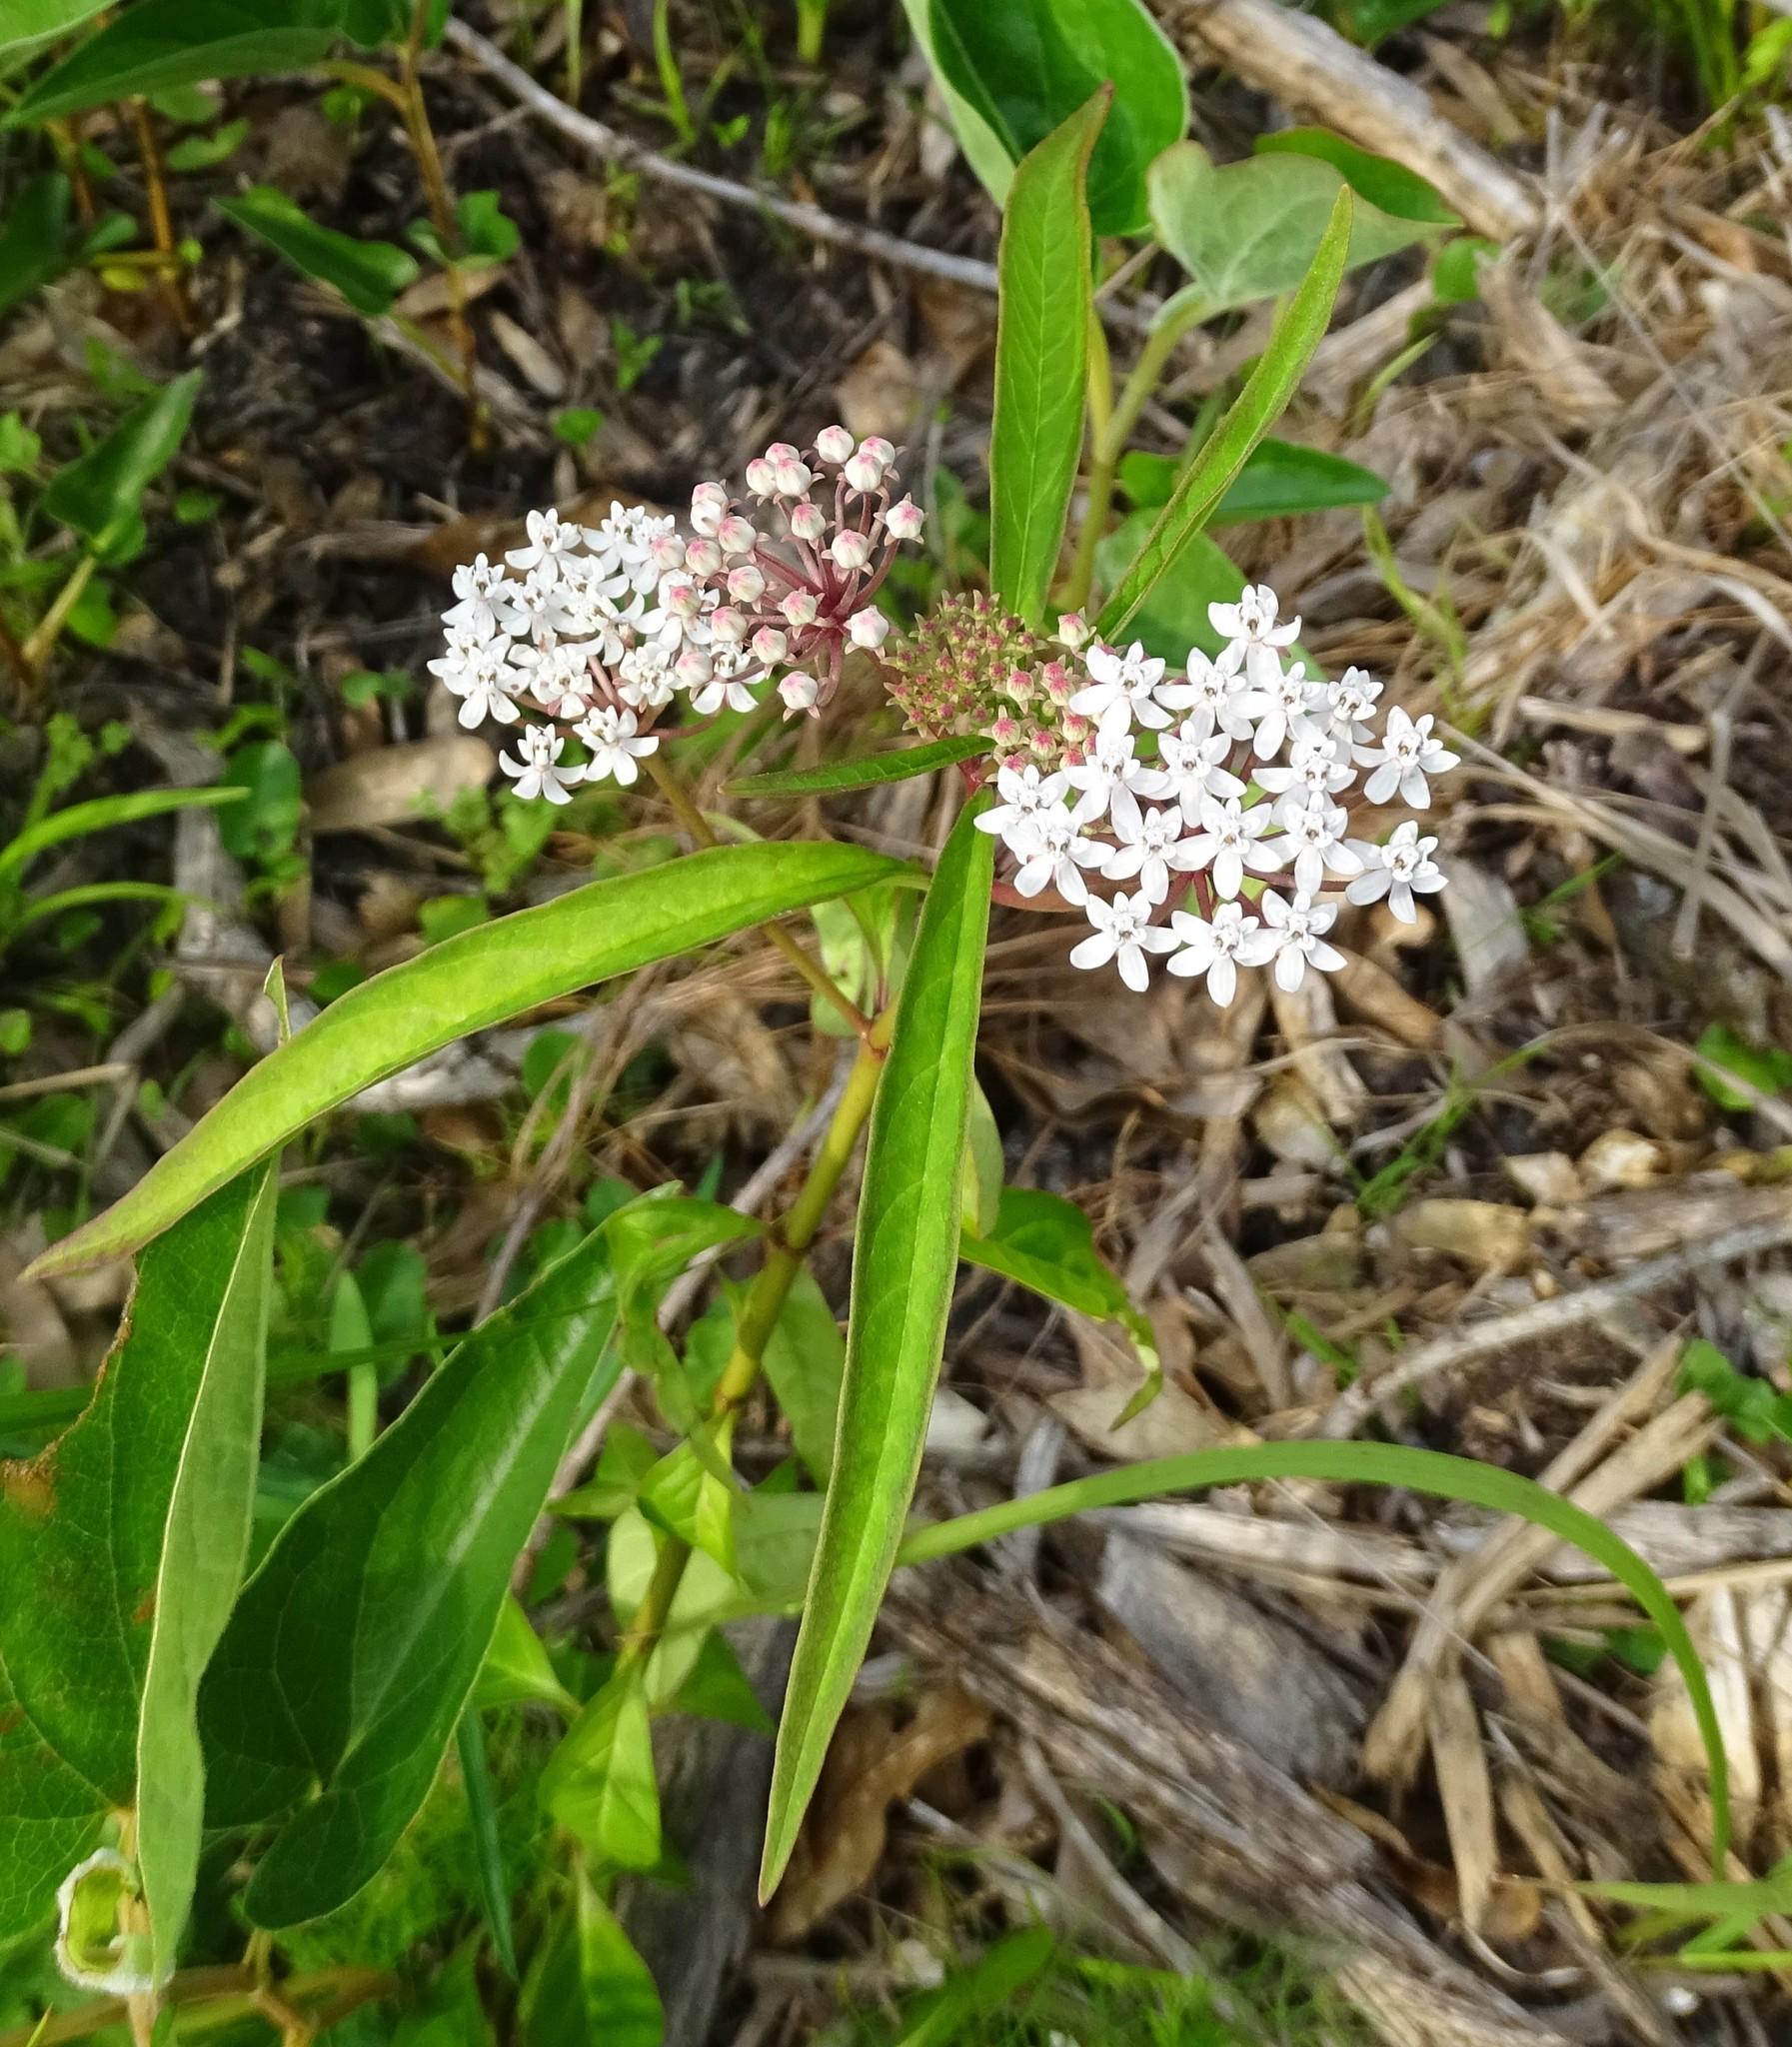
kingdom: Plantae
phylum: Tracheophyta
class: Magnoliopsida
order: Gentianales
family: Apocynaceae
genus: Asclepias
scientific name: Asclepias perennis
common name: Smooth-seed milkweed
